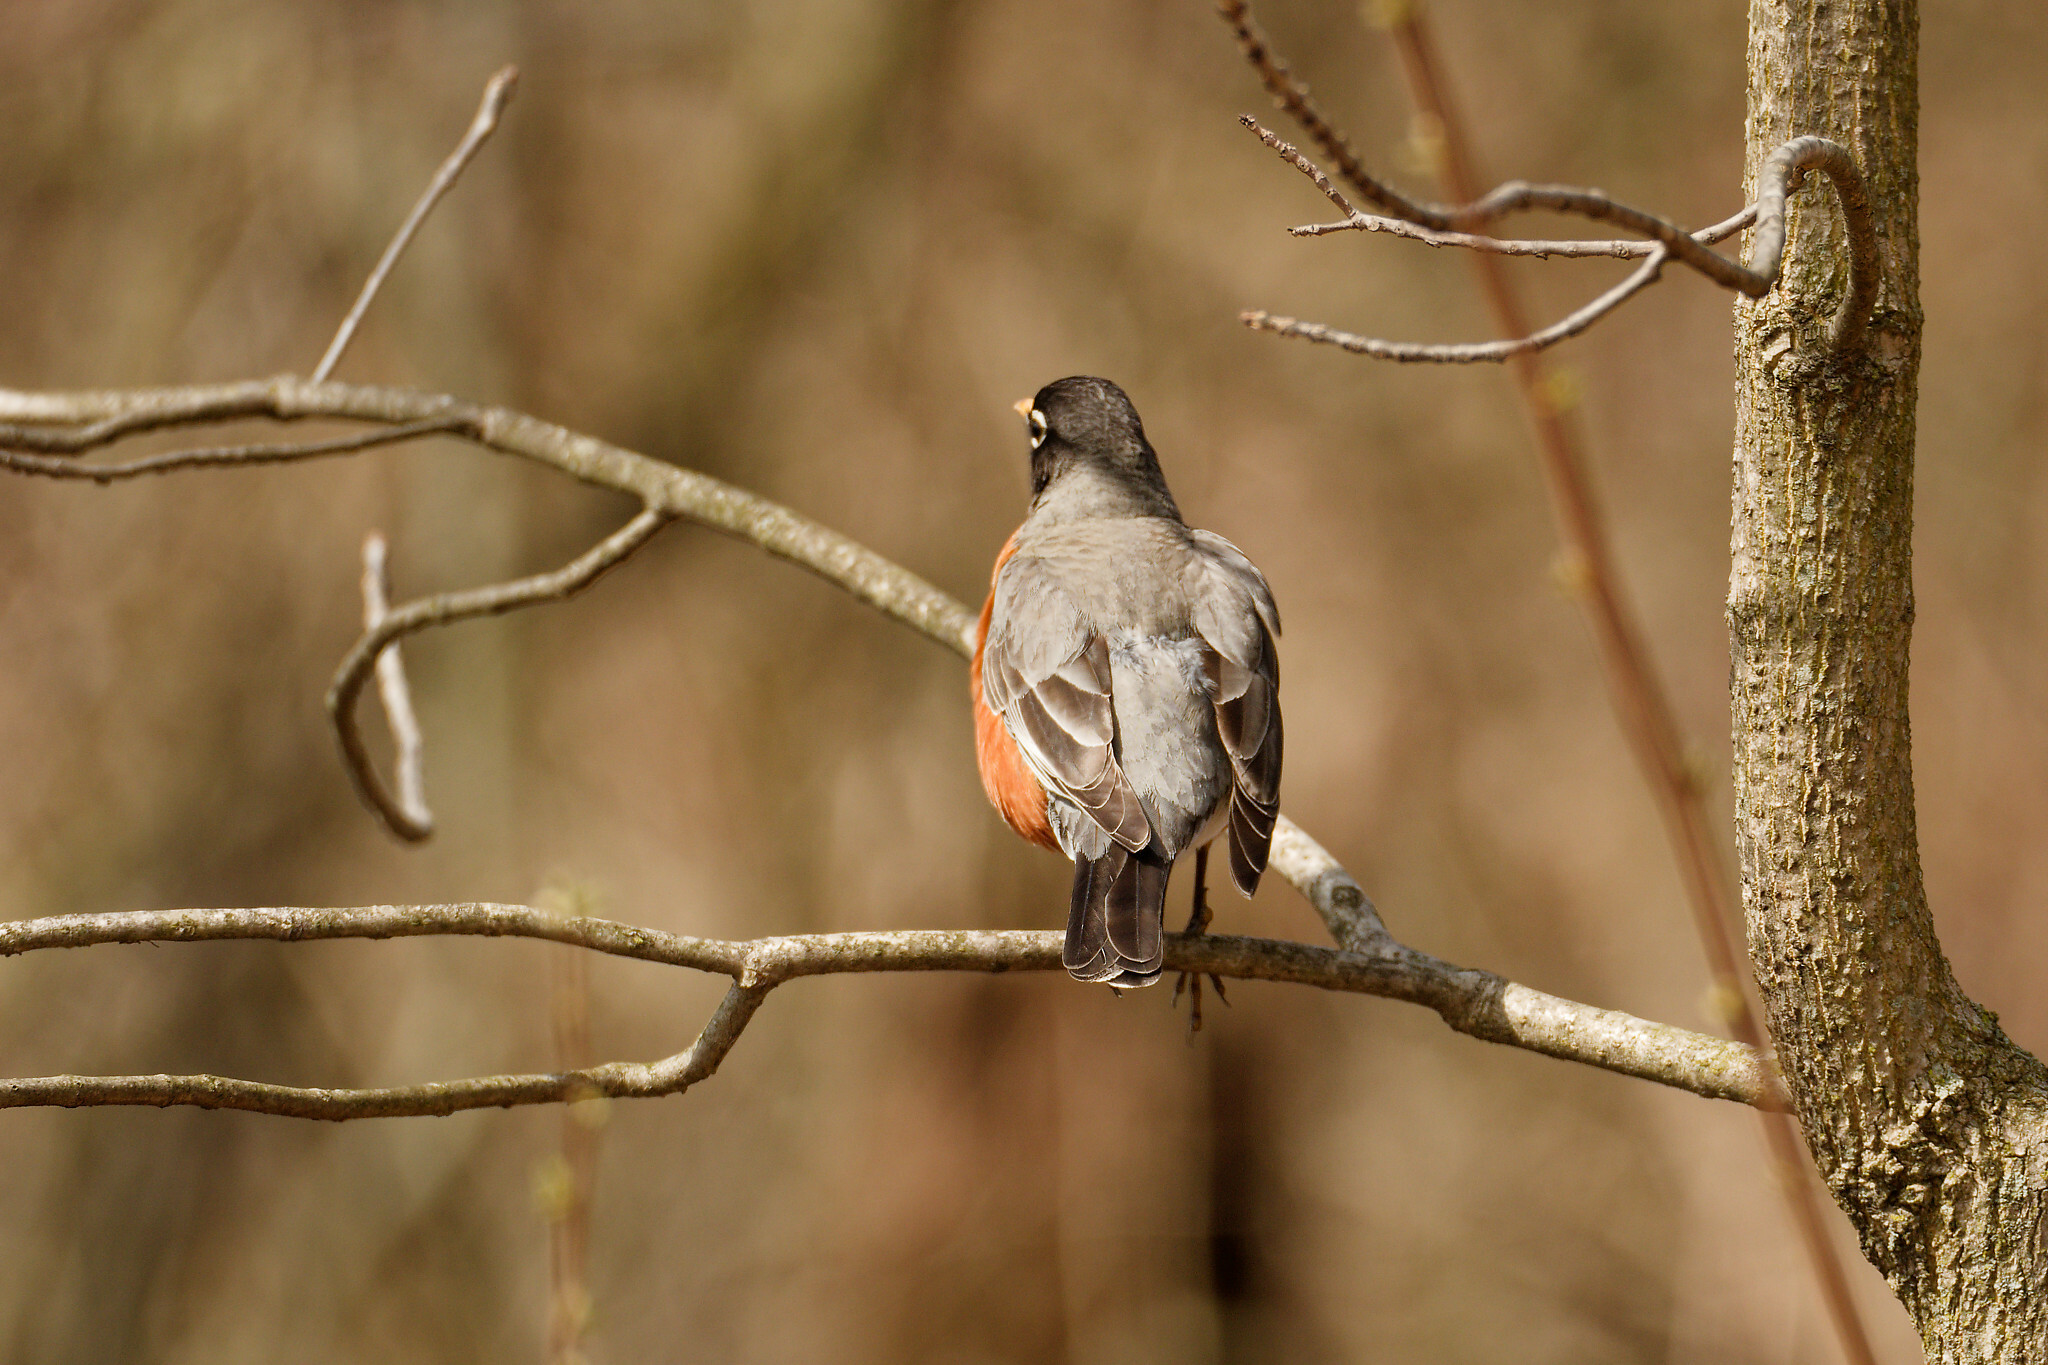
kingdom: Animalia
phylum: Chordata
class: Aves
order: Passeriformes
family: Turdidae
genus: Turdus
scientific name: Turdus migratorius
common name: American robin
